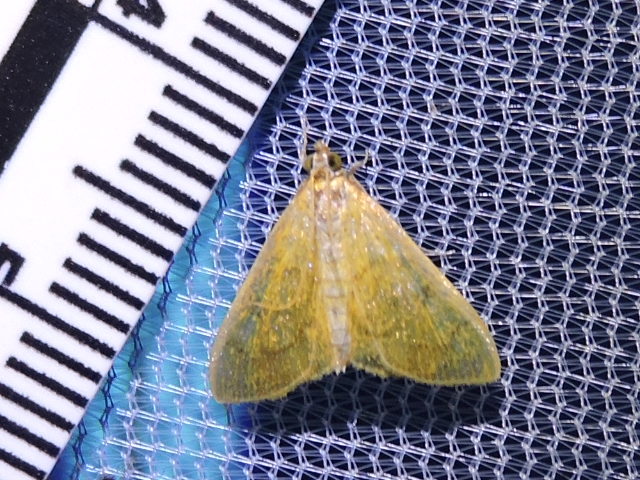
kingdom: Animalia
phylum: Arthropoda
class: Insecta
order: Lepidoptera
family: Crambidae
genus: Loxomorpha
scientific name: Loxomorpha flavidissimalis
